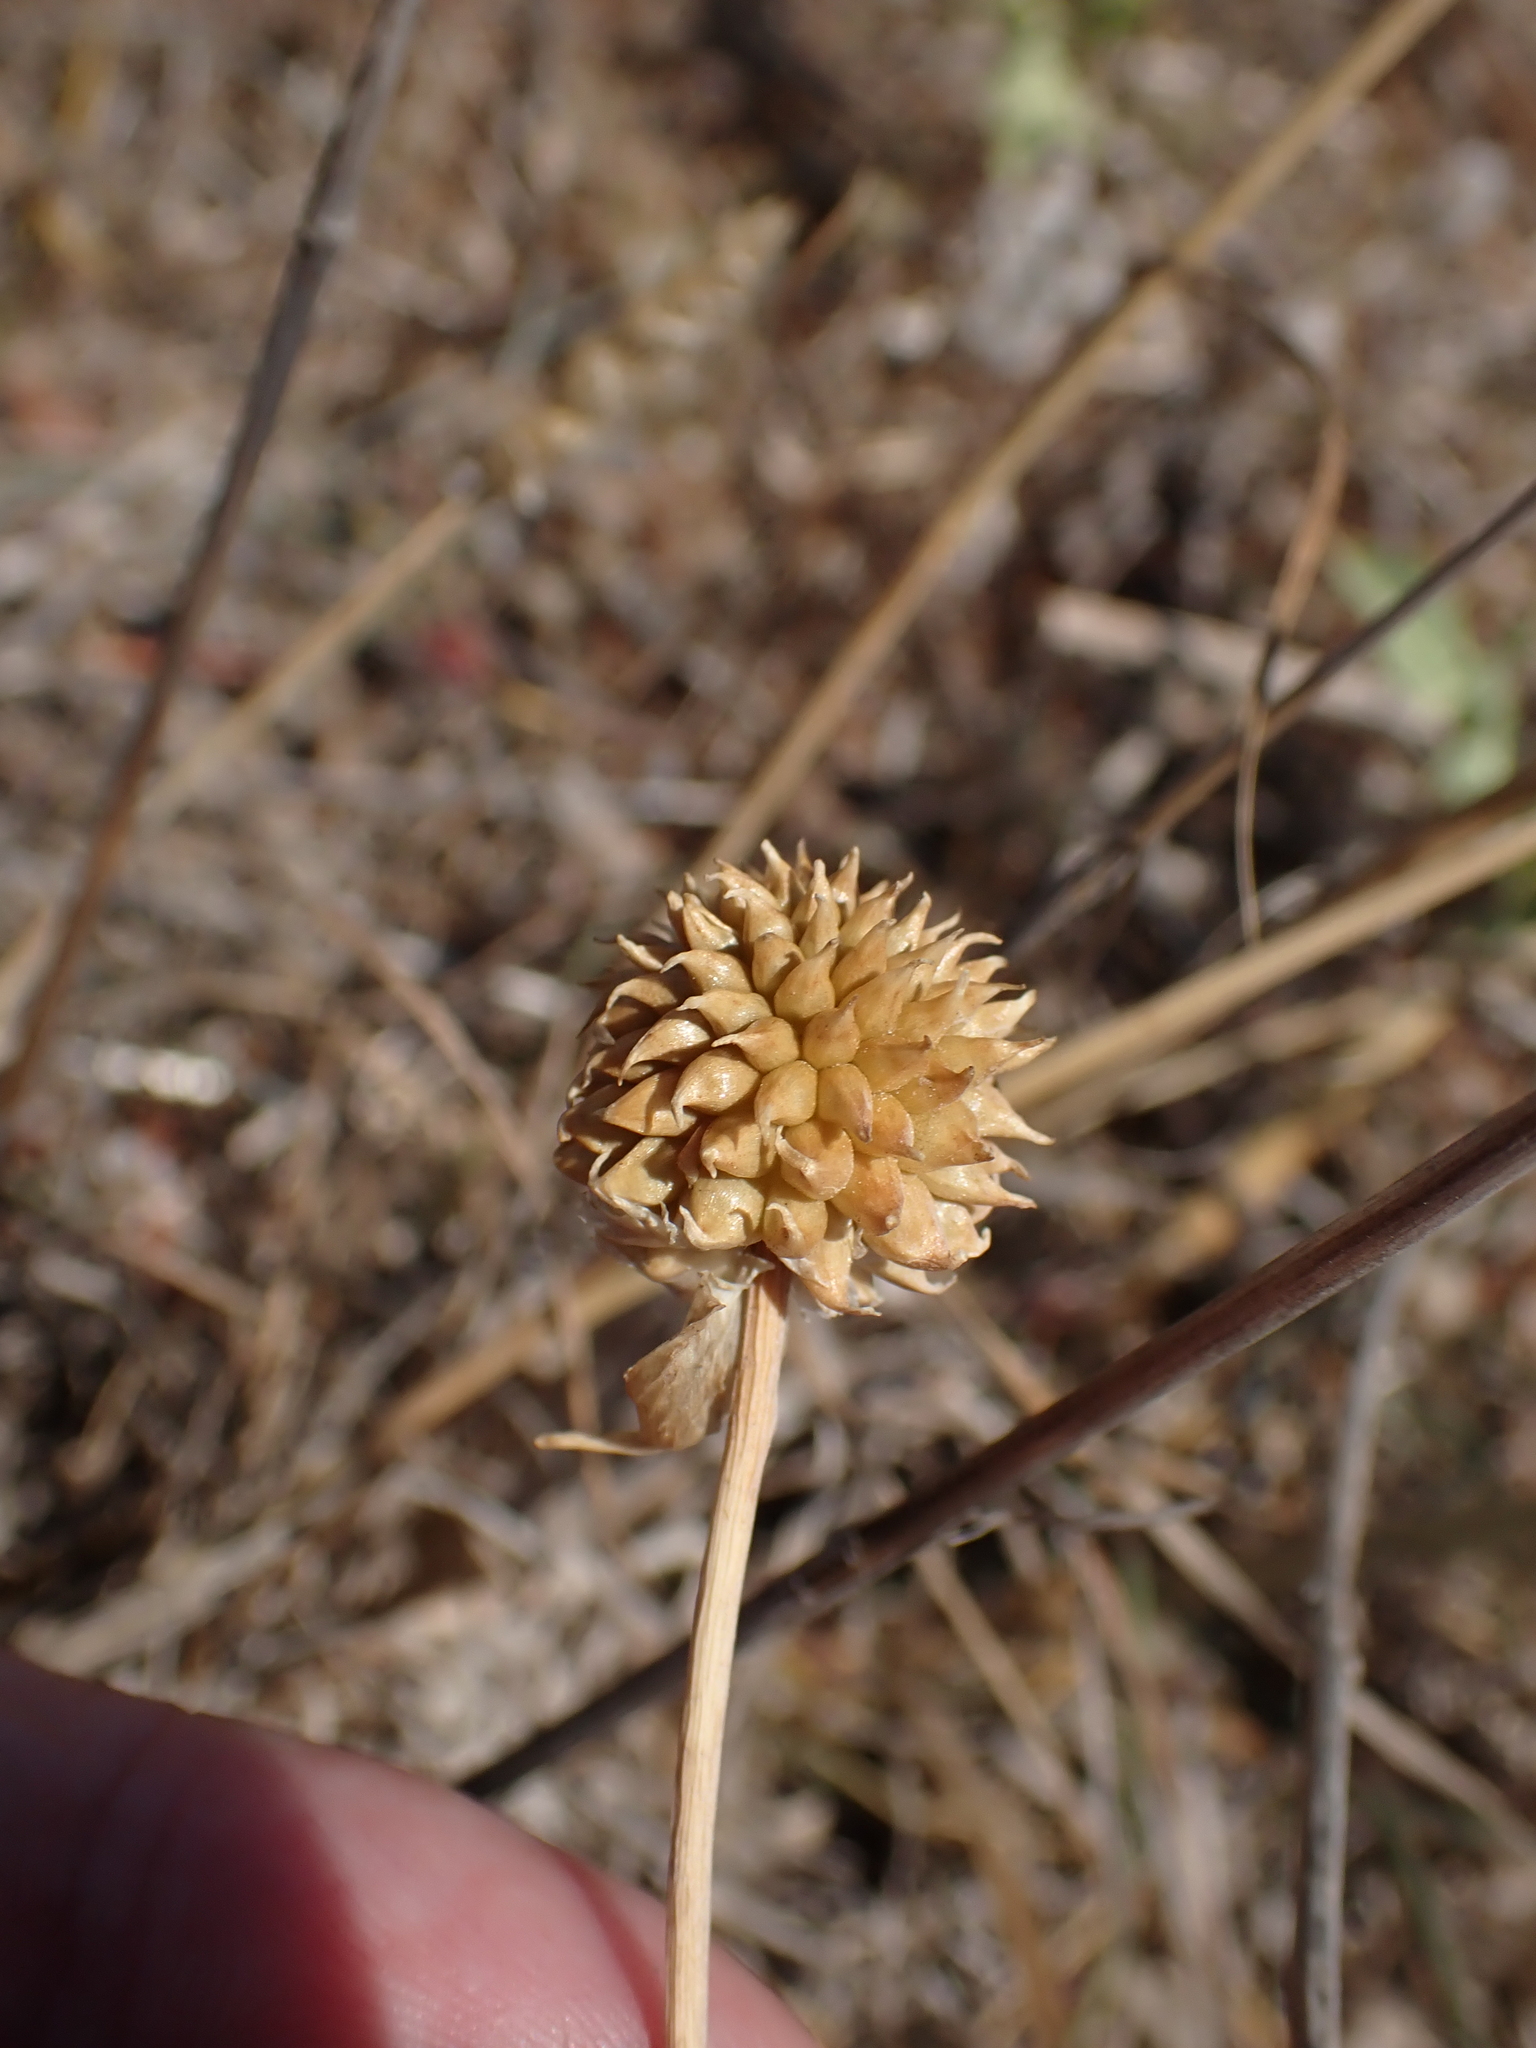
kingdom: Plantae
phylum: Tracheophyta
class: Liliopsida
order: Asparagales
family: Amaryllidaceae
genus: Allium
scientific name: Allium vineale
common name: Crow garlic
